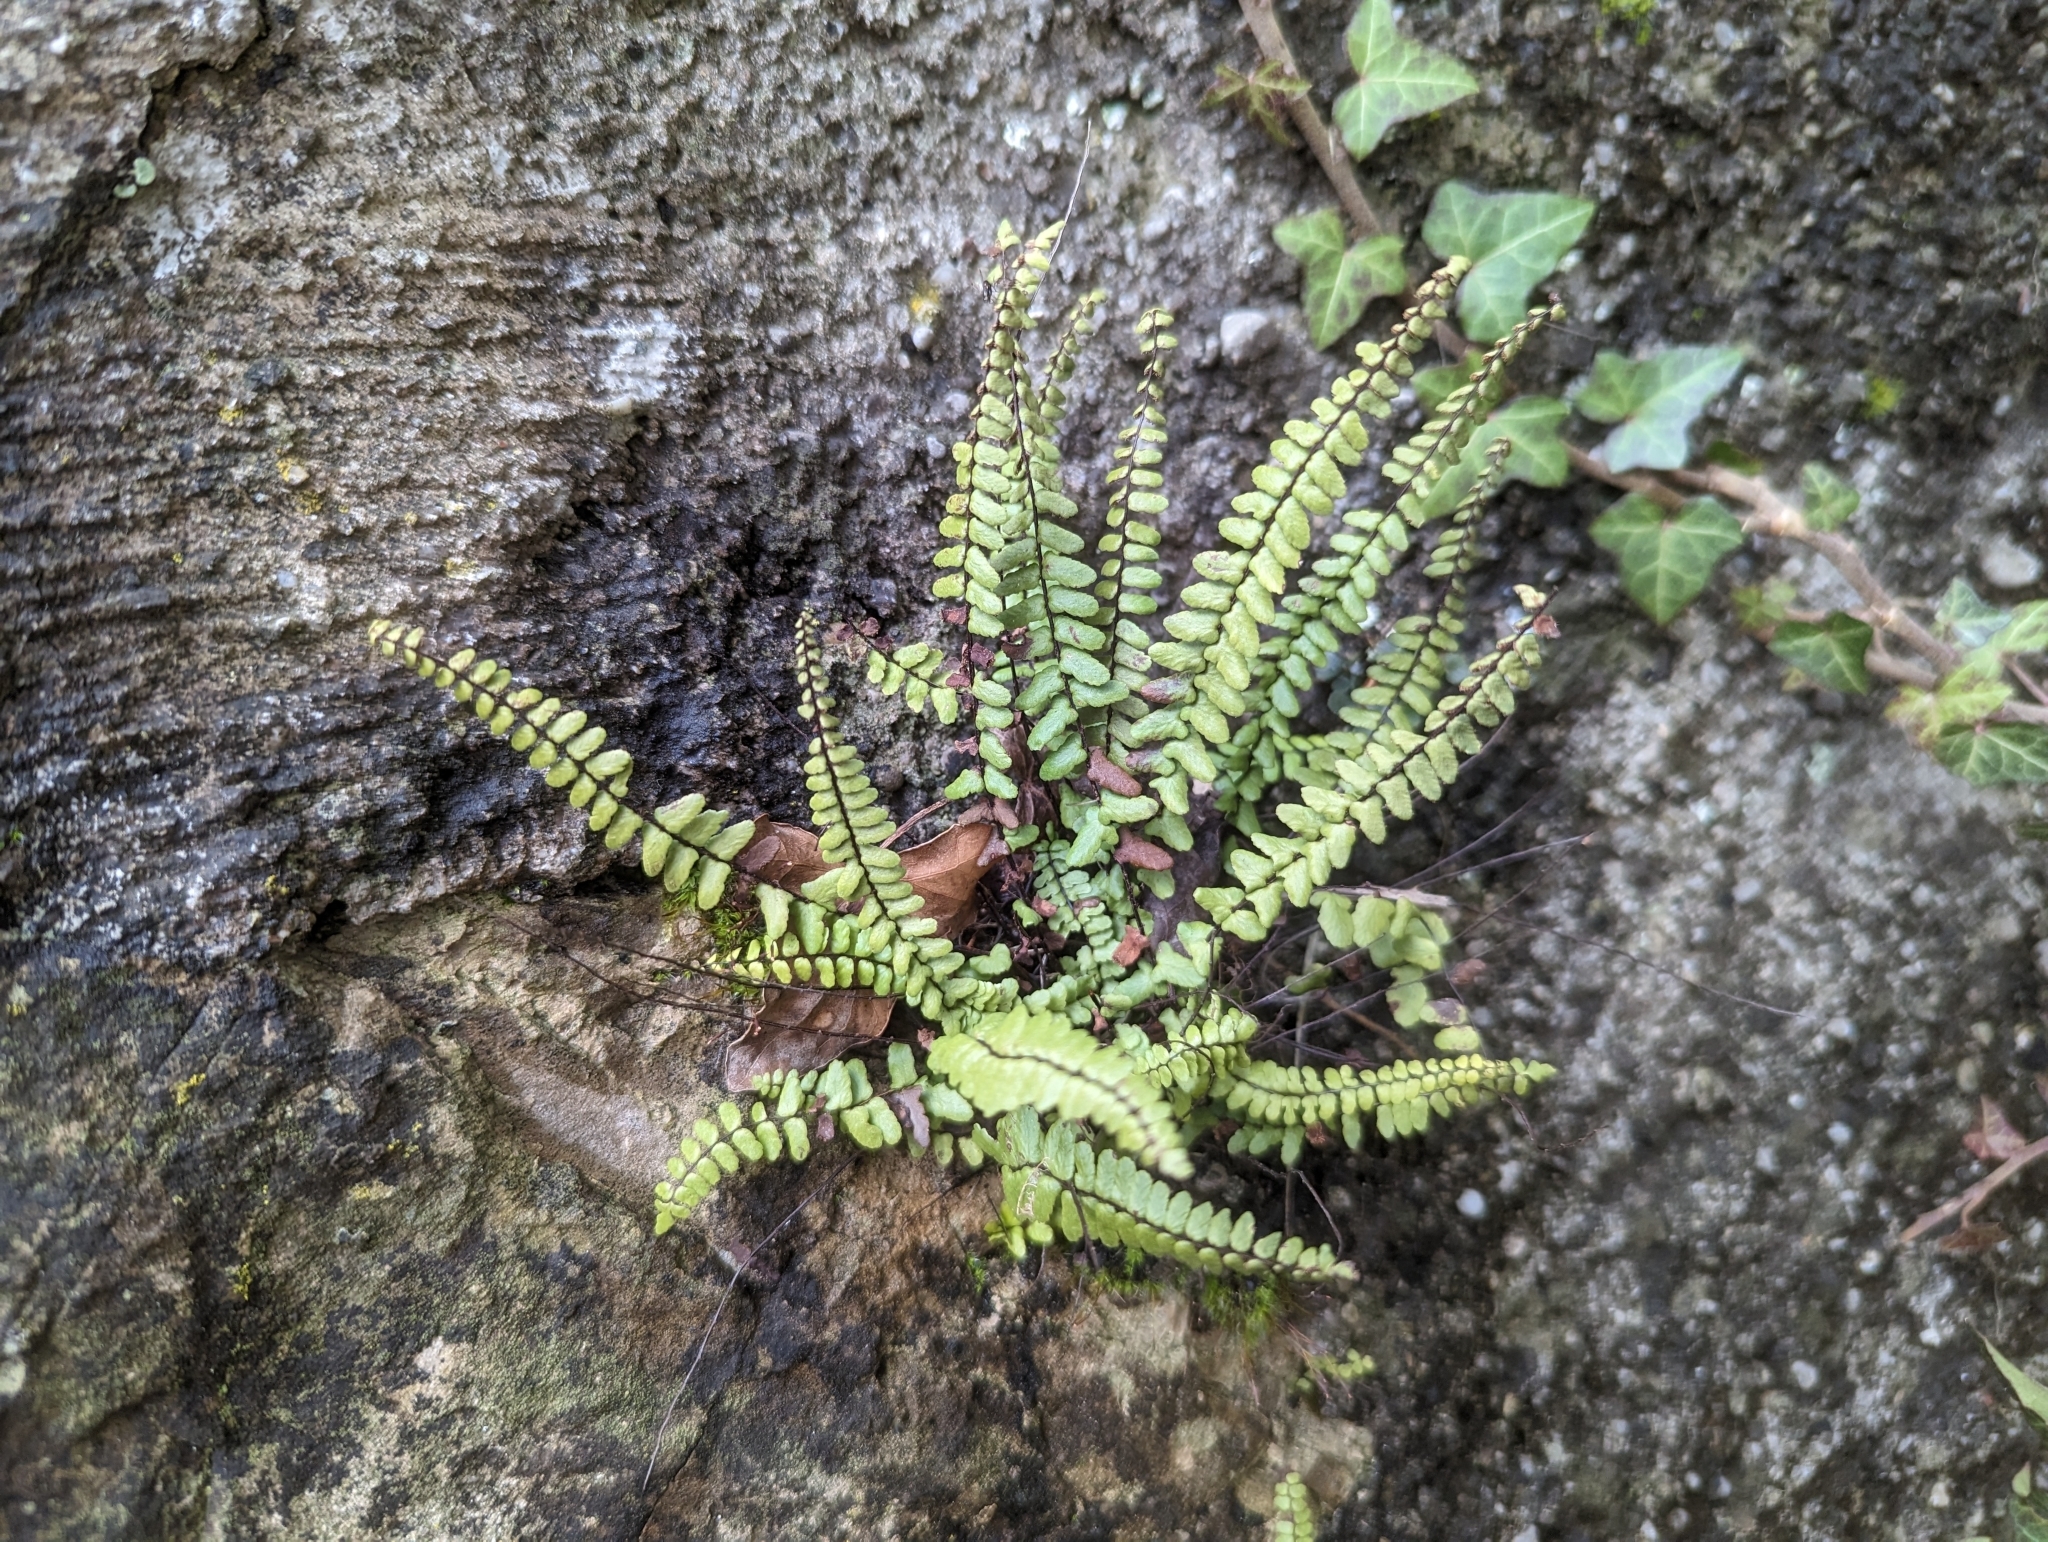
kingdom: Plantae
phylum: Tracheophyta
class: Polypodiopsida
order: Polypodiales
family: Aspleniaceae
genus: Asplenium
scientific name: Asplenium trichomanes
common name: Maidenhair spleenwort
